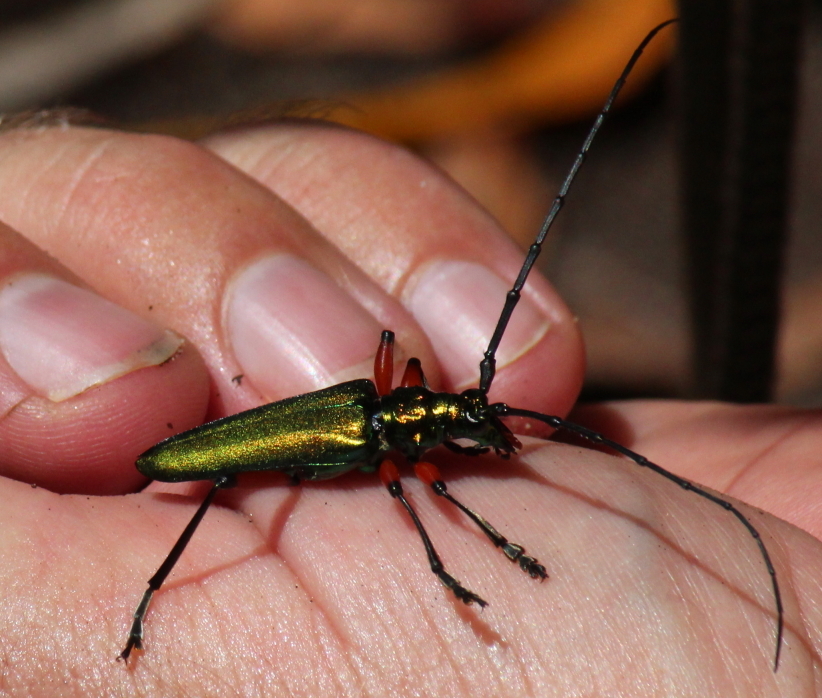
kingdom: Animalia
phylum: Arthropoda
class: Insecta
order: Coleoptera
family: Cerambycidae
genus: Philematium
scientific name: Philematium virens
